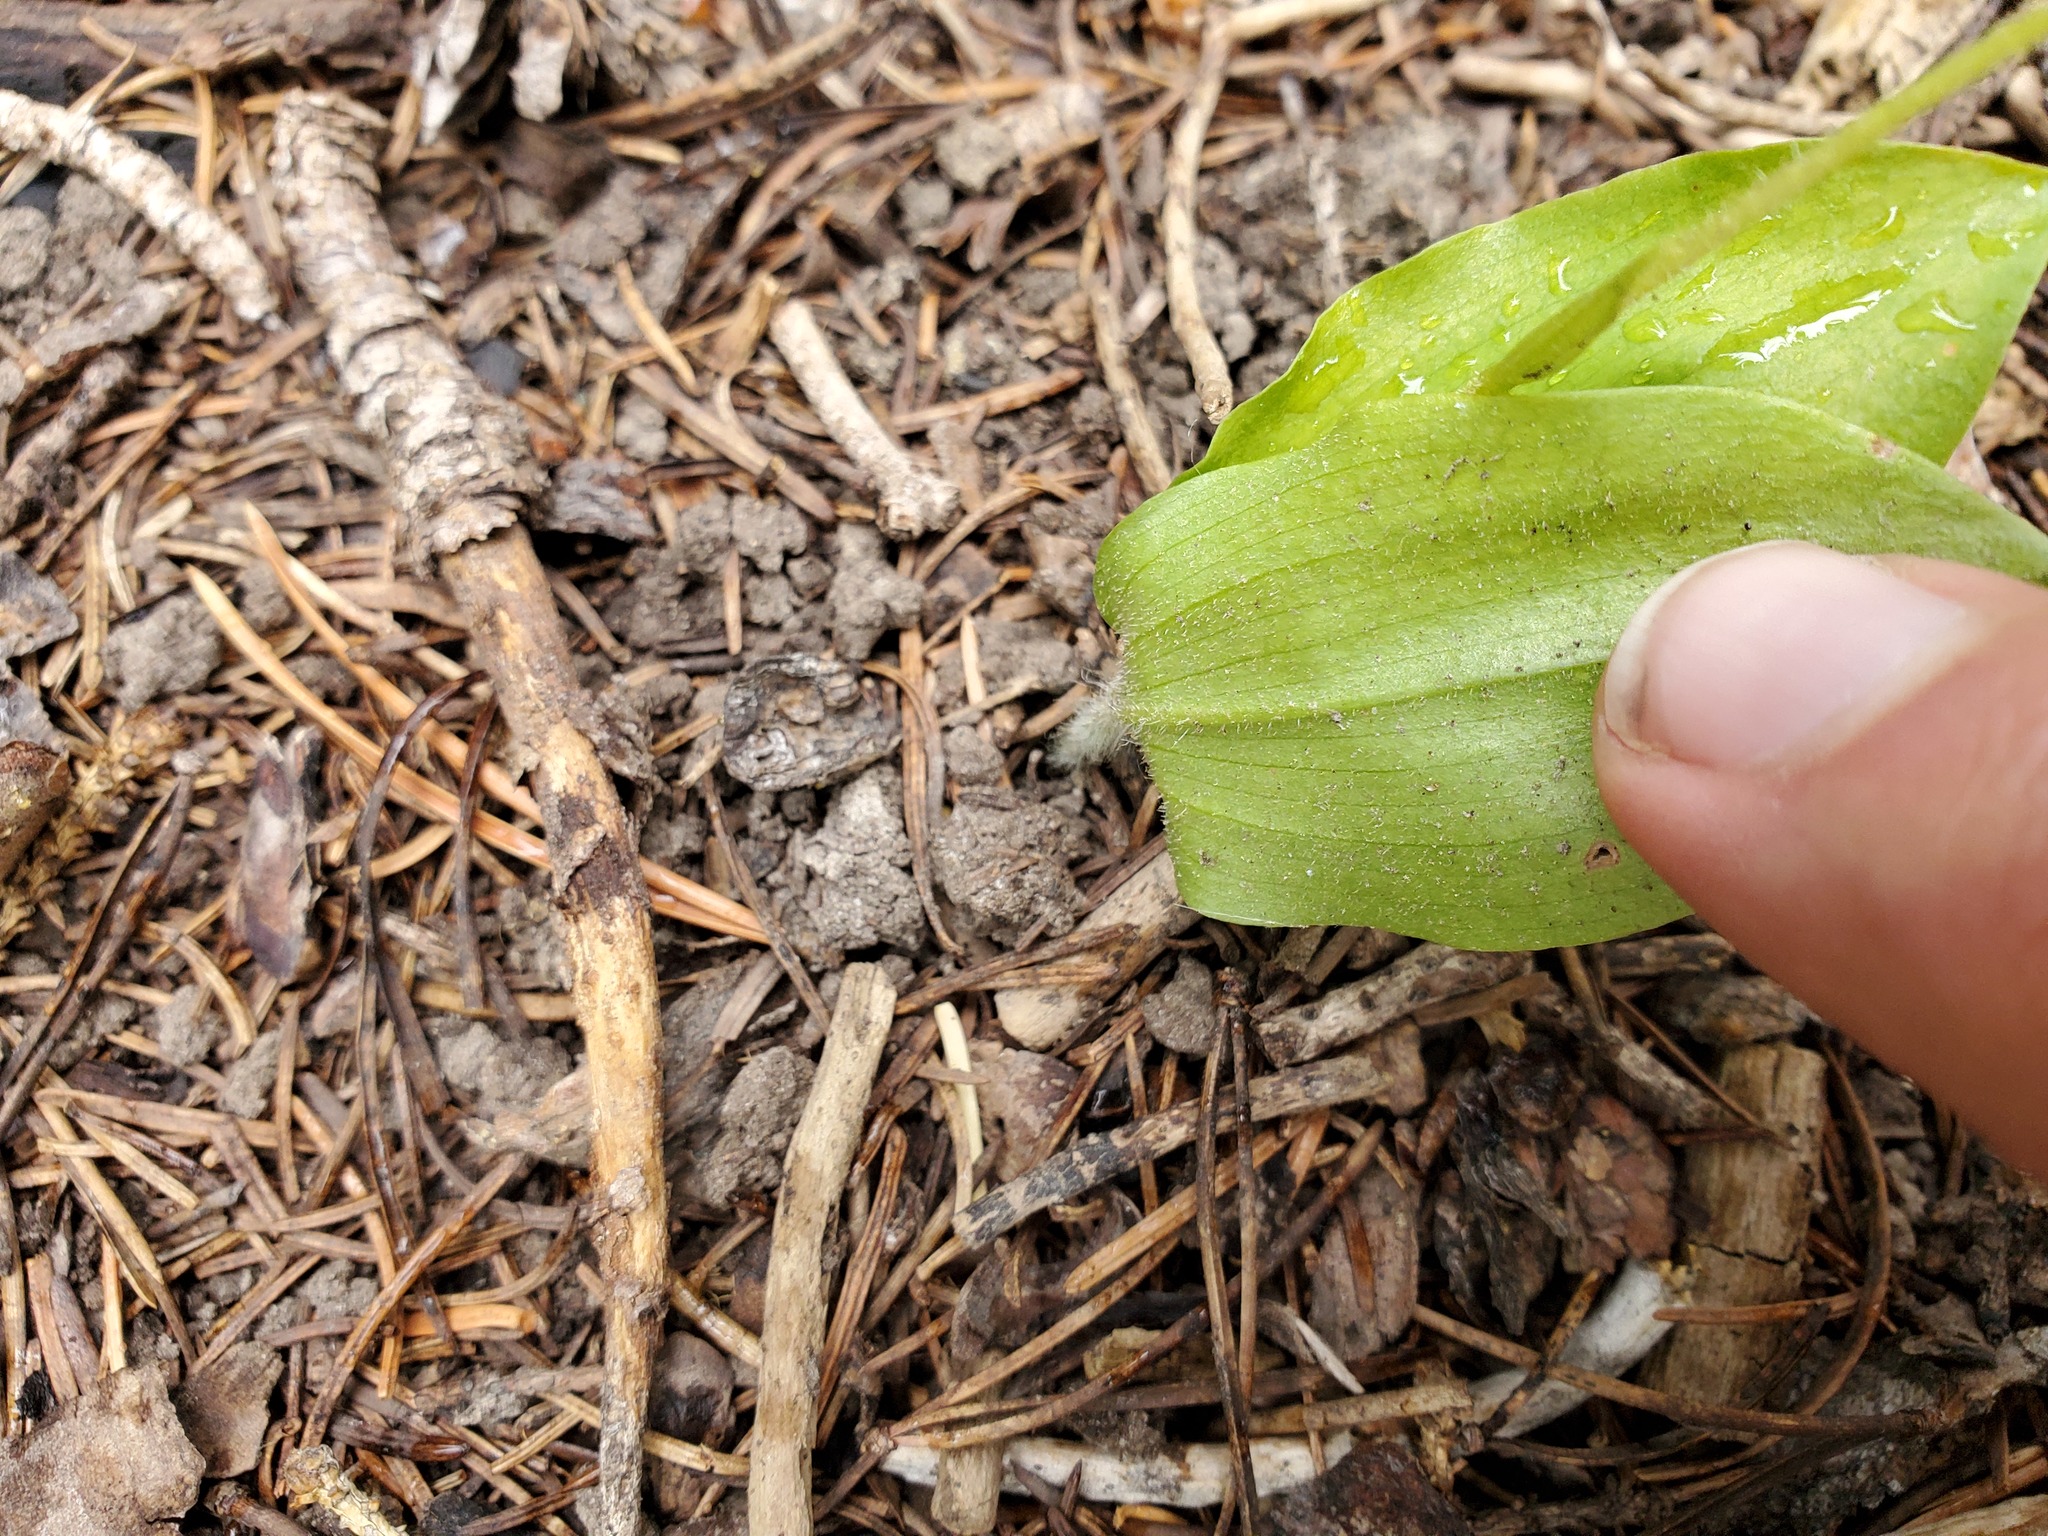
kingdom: Plantae
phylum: Tracheophyta
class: Liliopsida
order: Asparagales
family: Orchidaceae
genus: Cypripedium
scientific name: Cypripedium fasciculatum
